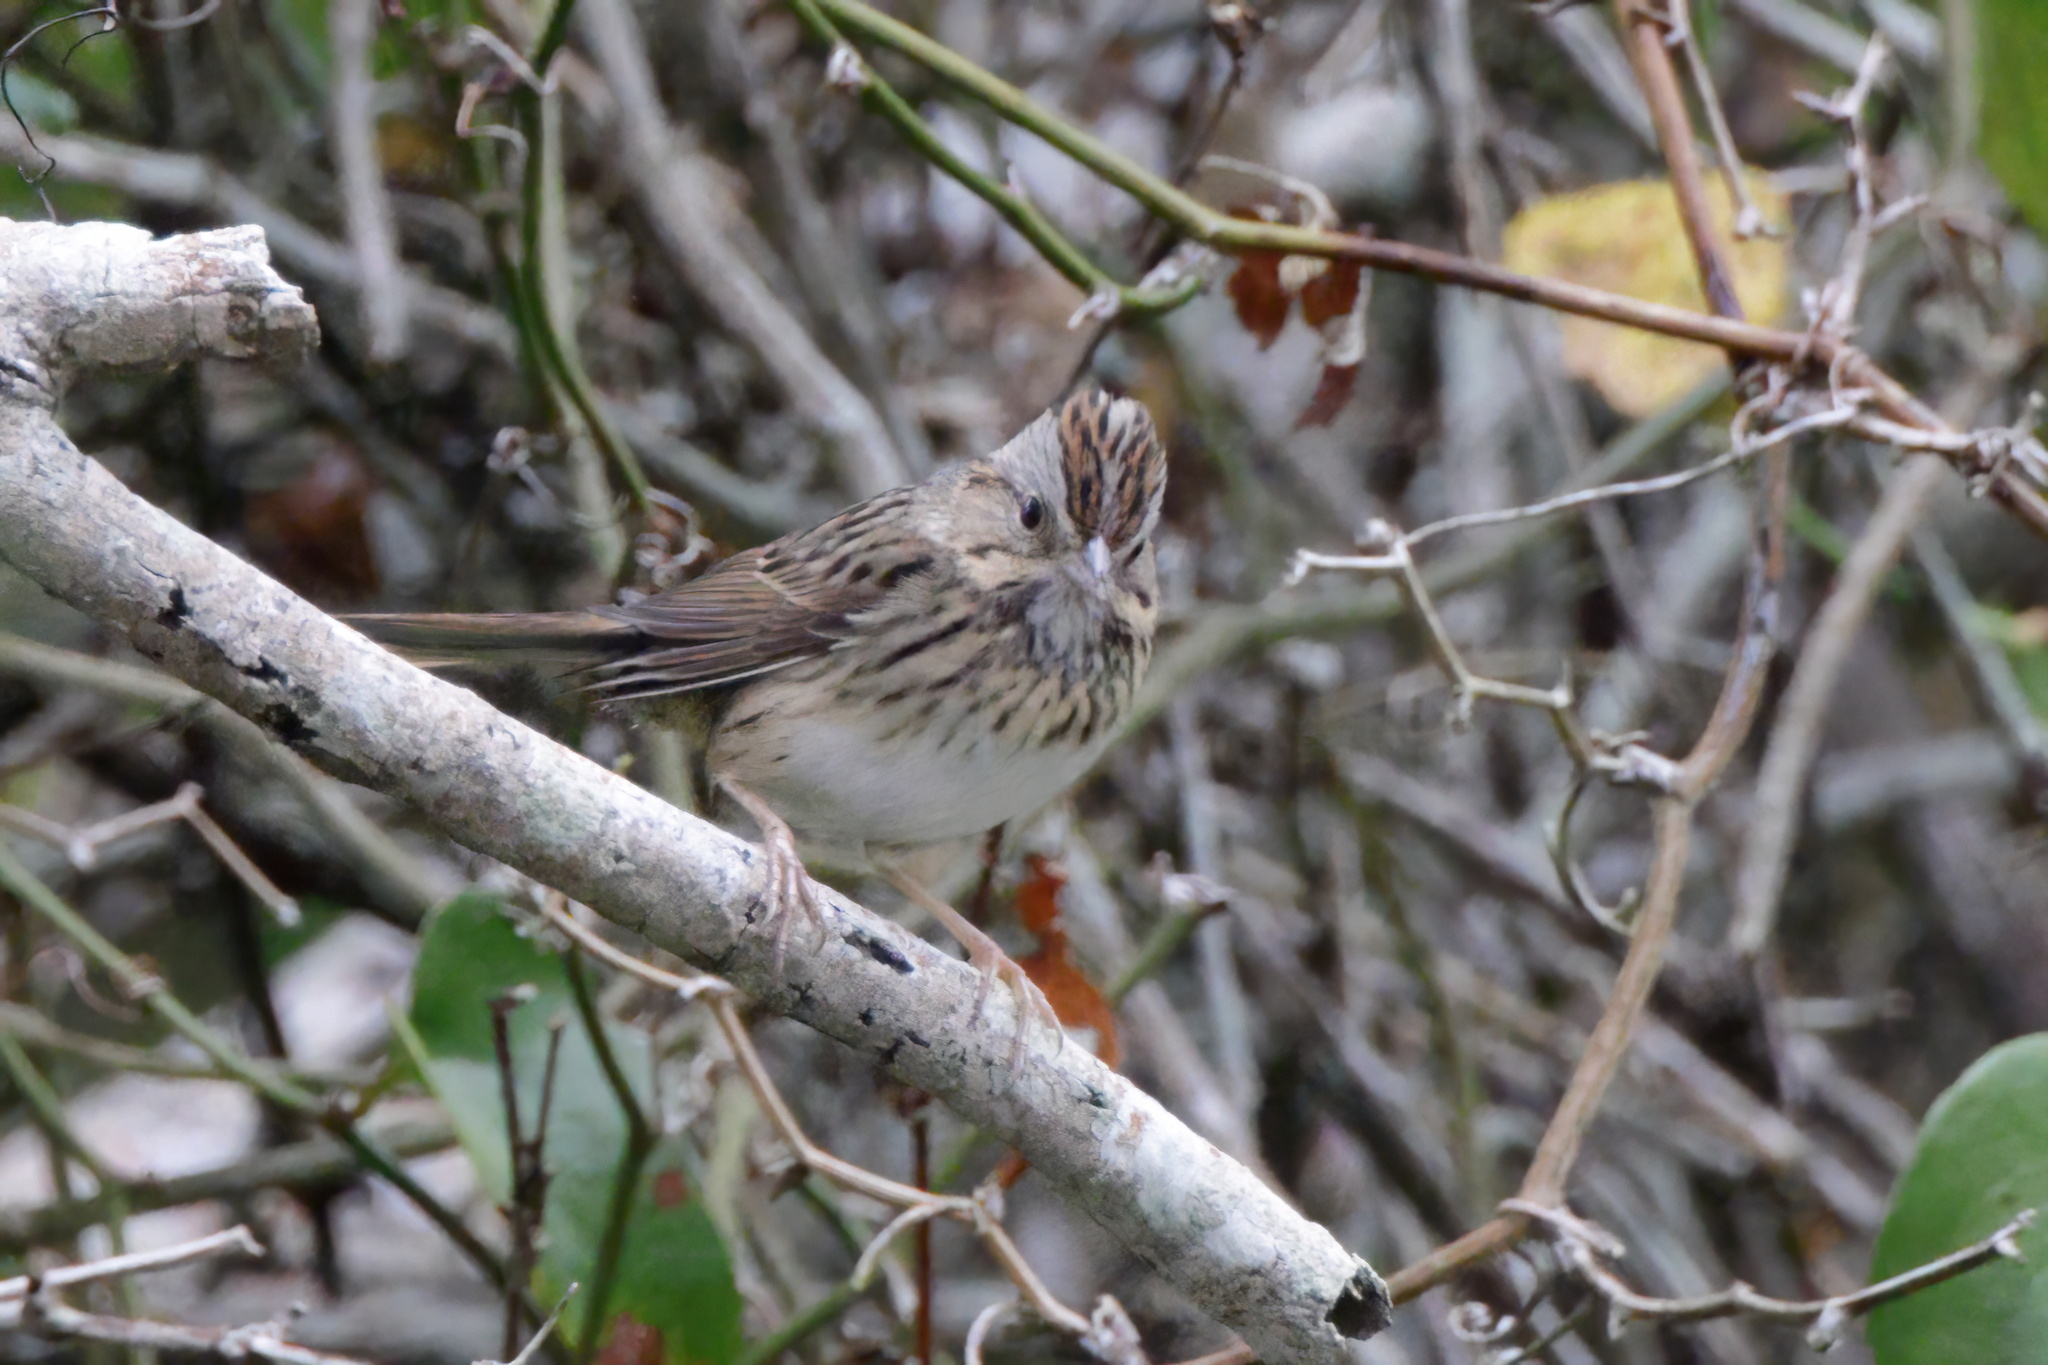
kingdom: Animalia
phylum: Chordata
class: Aves
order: Passeriformes
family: Passerellidae
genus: Melospiza
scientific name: Melospiza lincolnii
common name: Lincoln's sparrow
